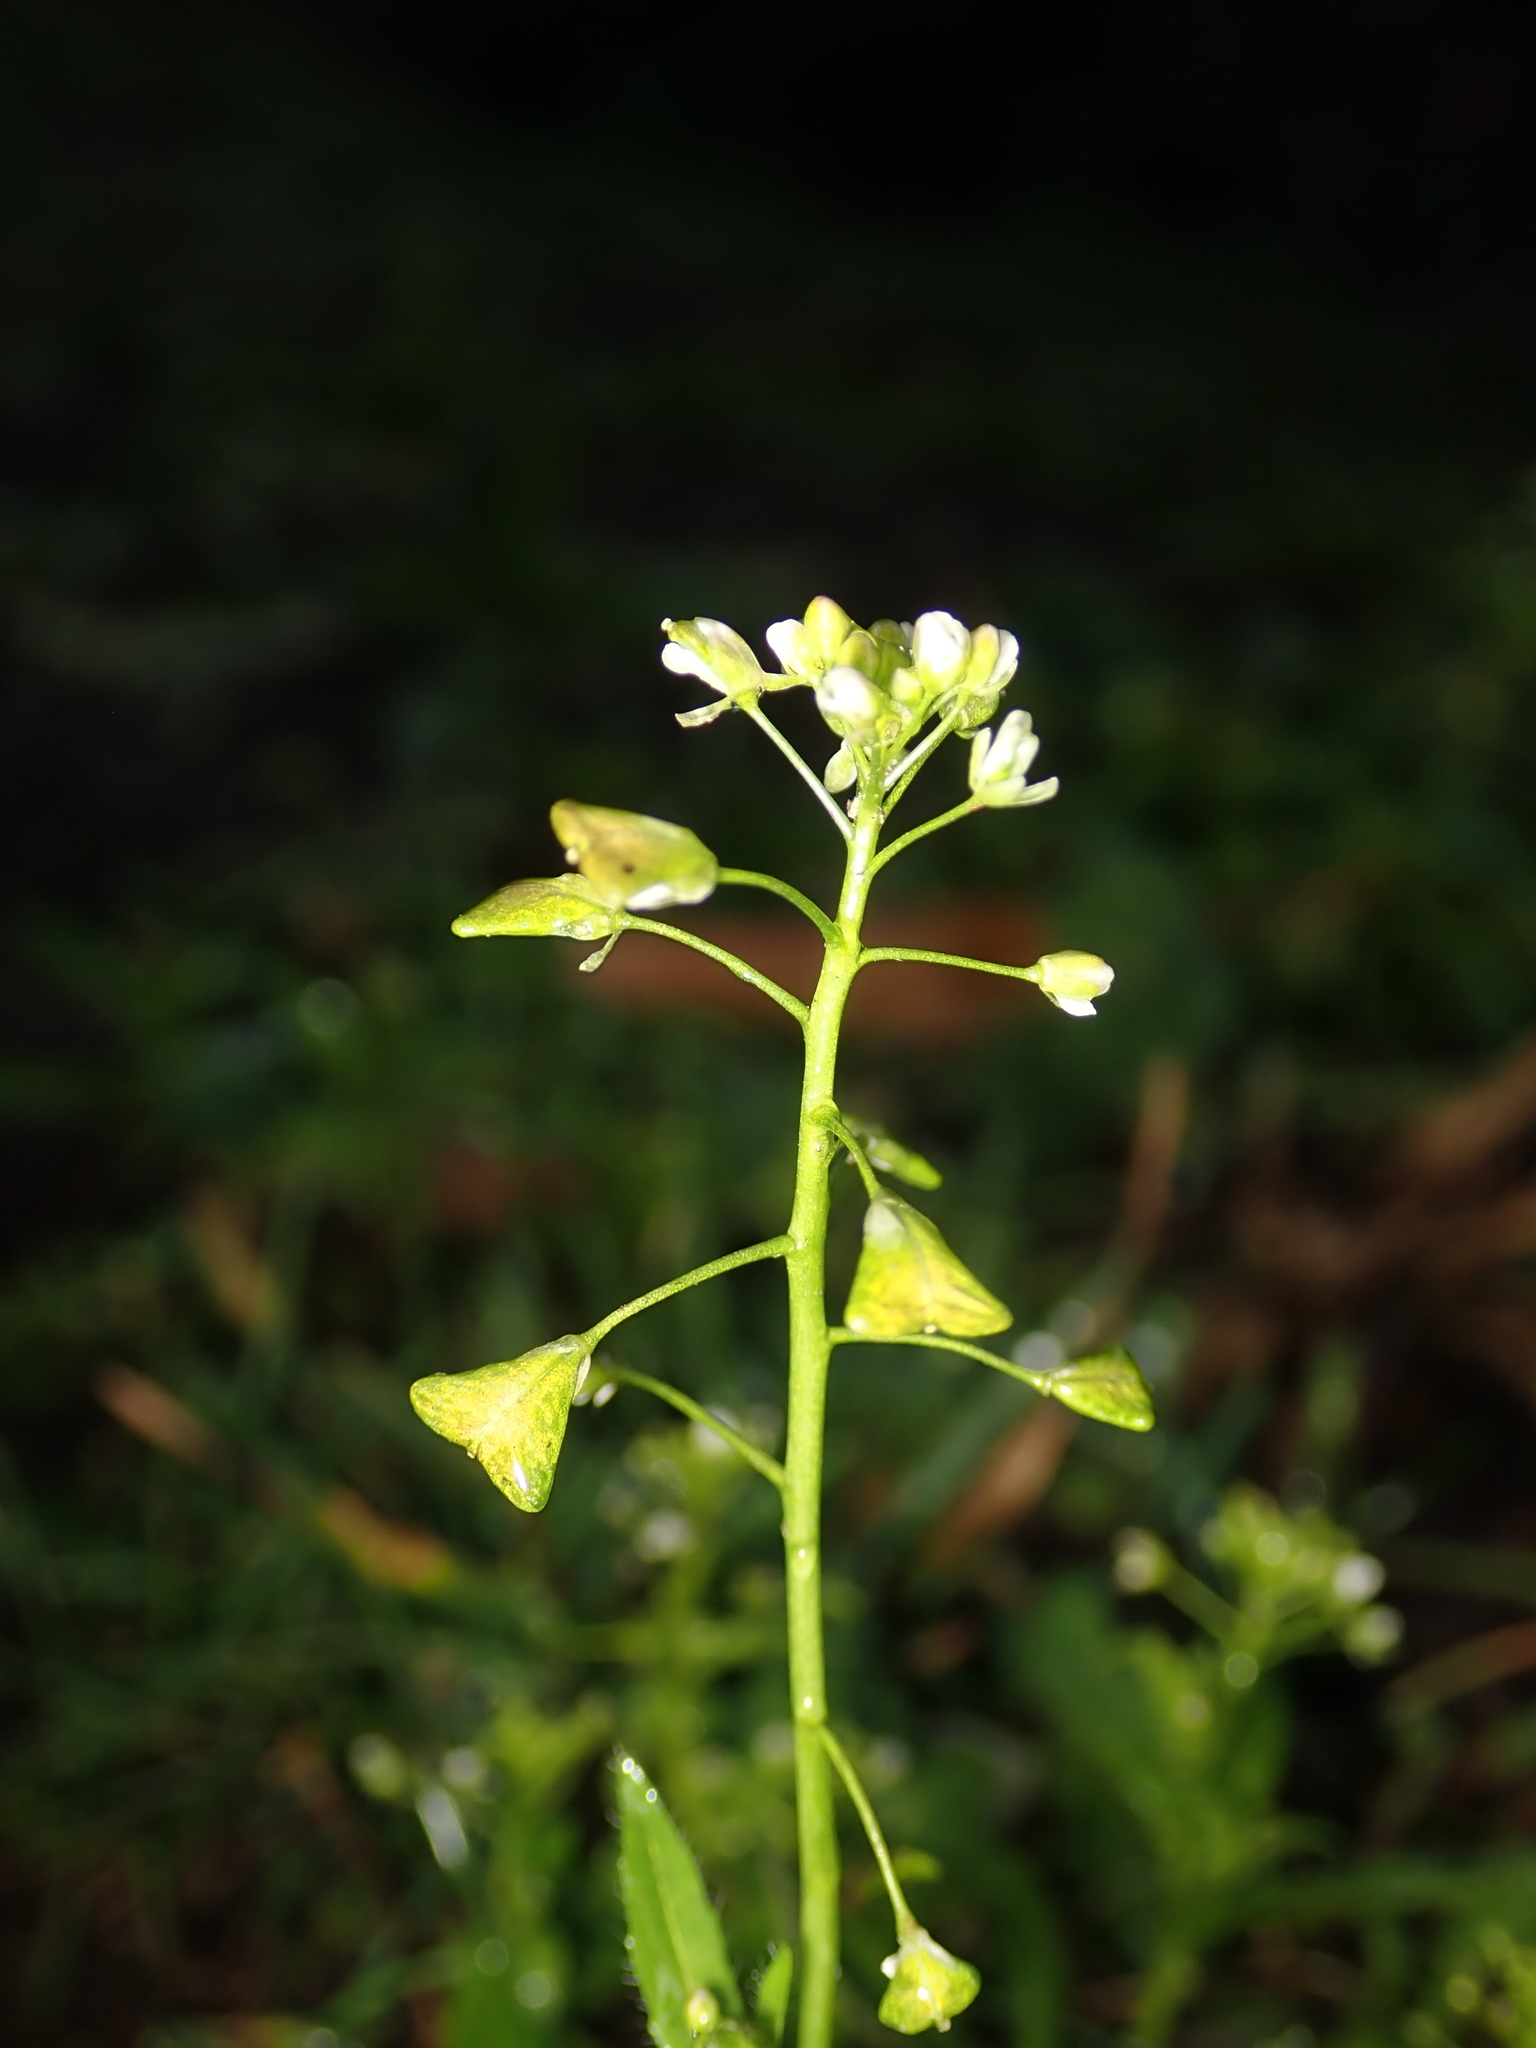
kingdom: Plantae
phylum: Tracheophyta
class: Magnoliopsida
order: Brassicales
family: Brassicaceae
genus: Capsella
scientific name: Capsella bursa-pastoris
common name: Shepherd's purse
